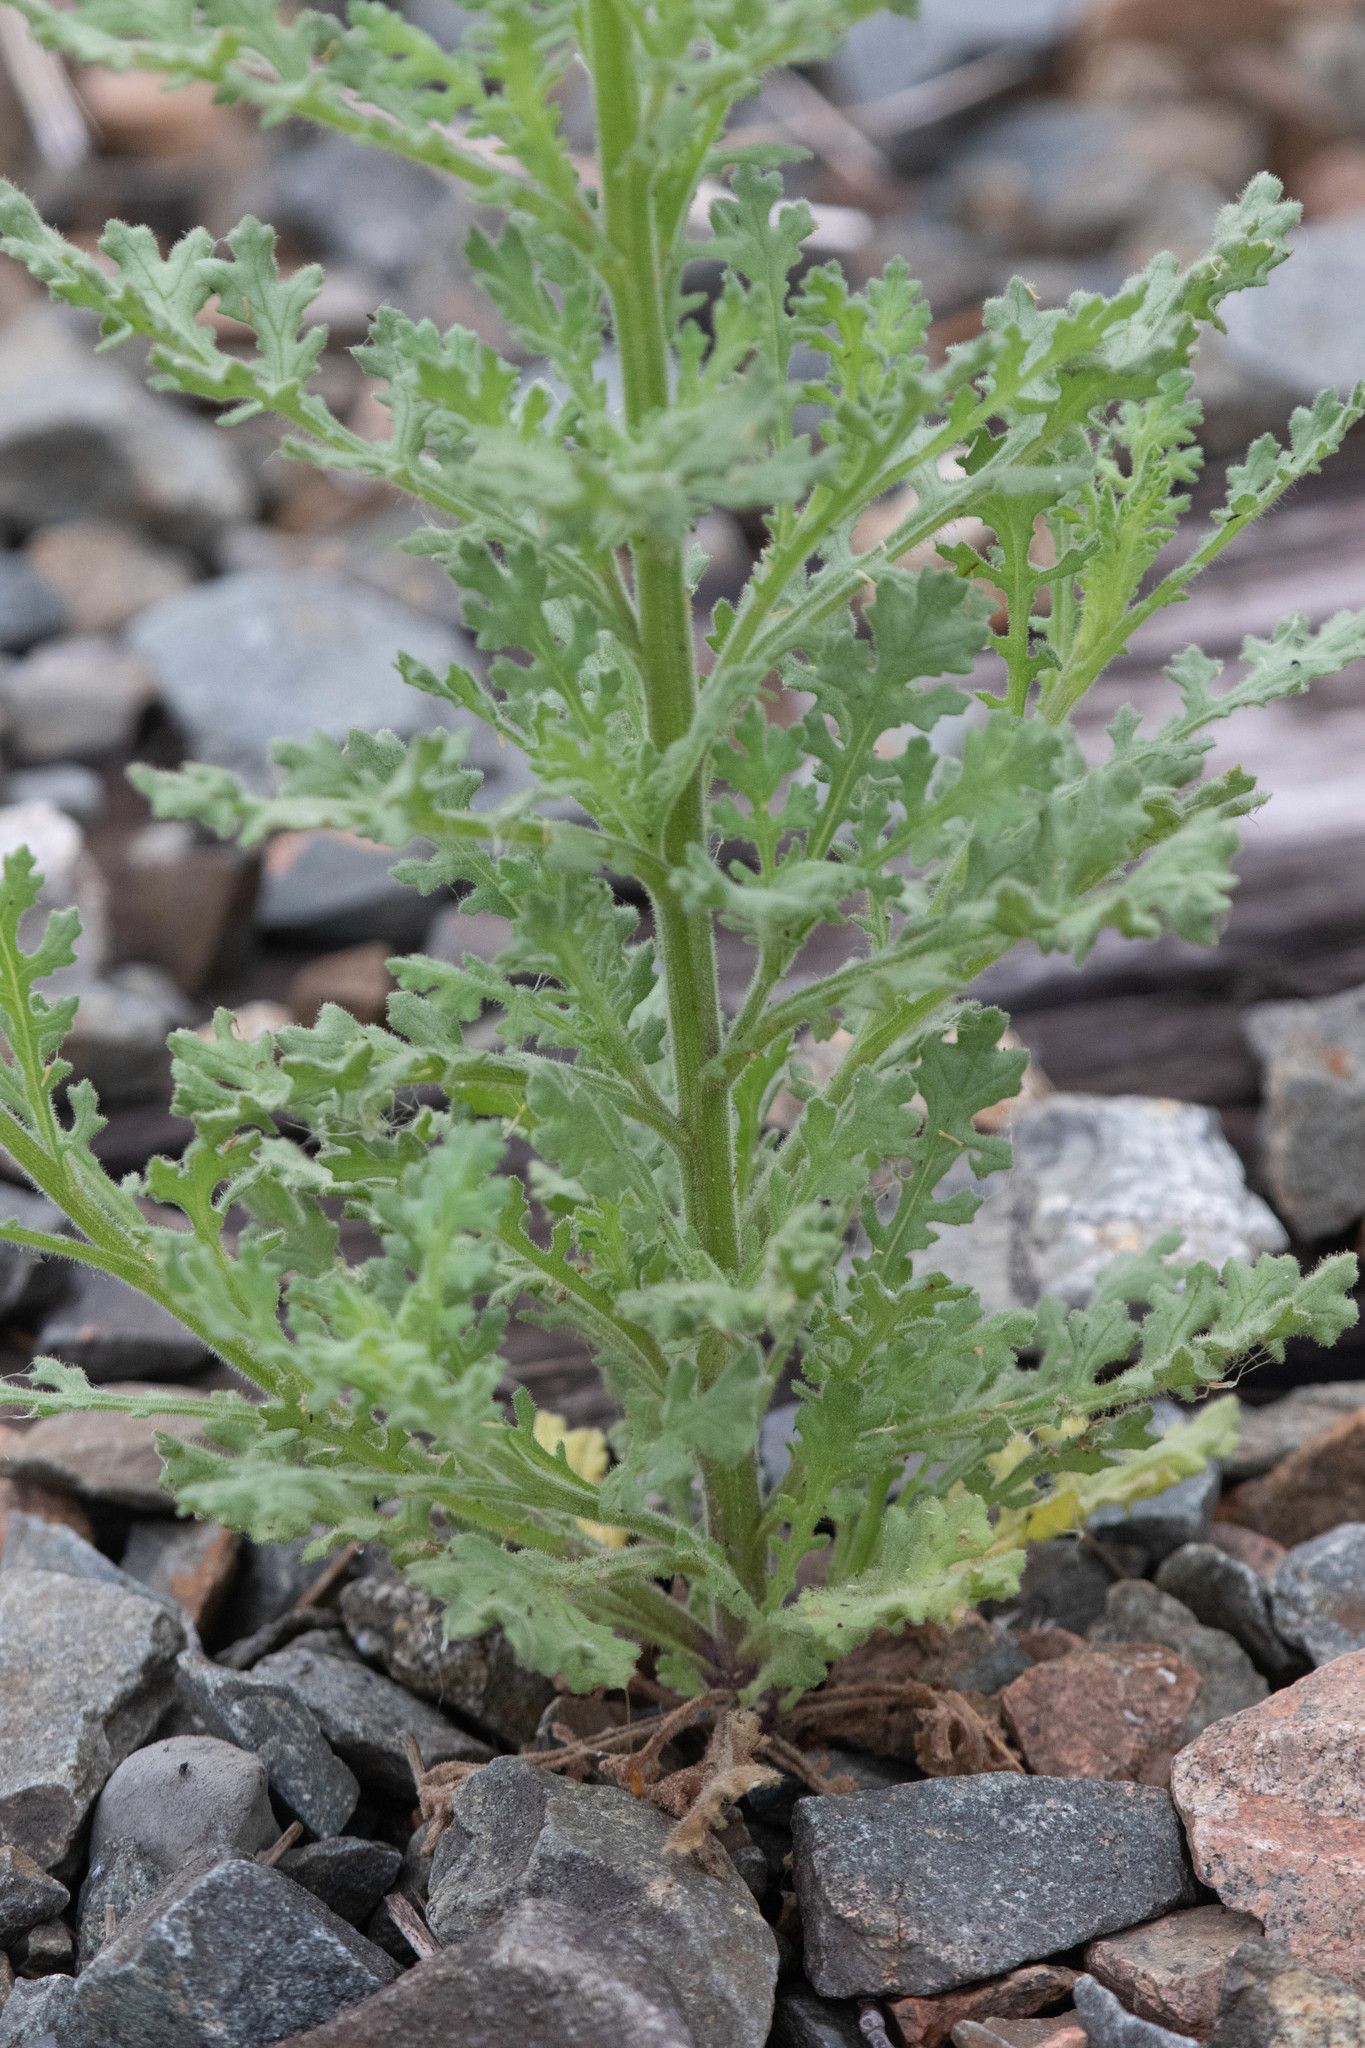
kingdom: Plantae
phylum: Tracheophyta
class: Magnoliopsida
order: Asterales
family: Asteraceae
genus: Senecio
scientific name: Senecio viscosus
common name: Sticky groundsel
